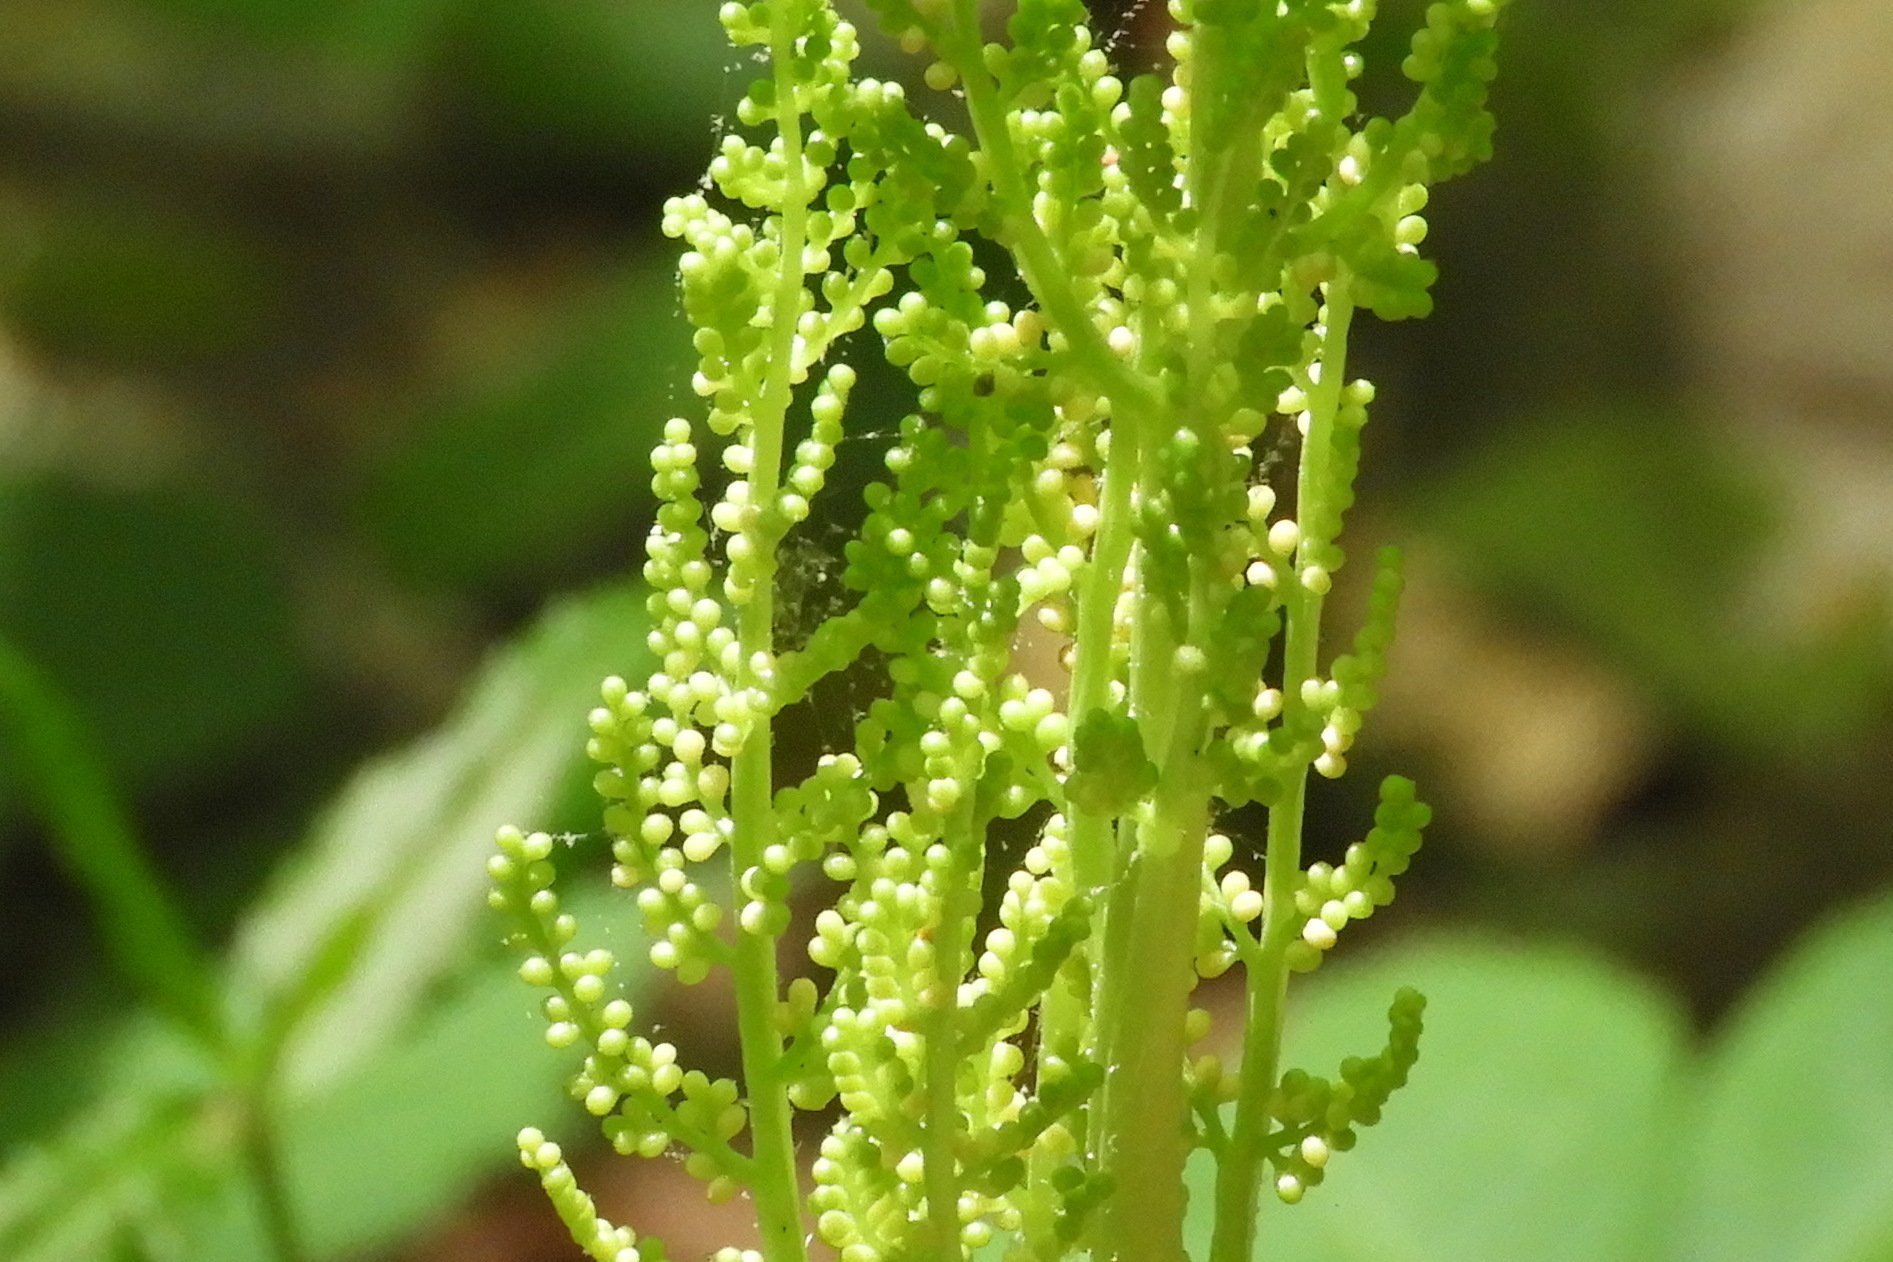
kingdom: Plantae
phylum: Tracheophyta
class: Polypodiopsida
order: Ophioglossales
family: Ophioglossaceae
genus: Botrypus
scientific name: Botrypus virginianus
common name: Common grapefern
